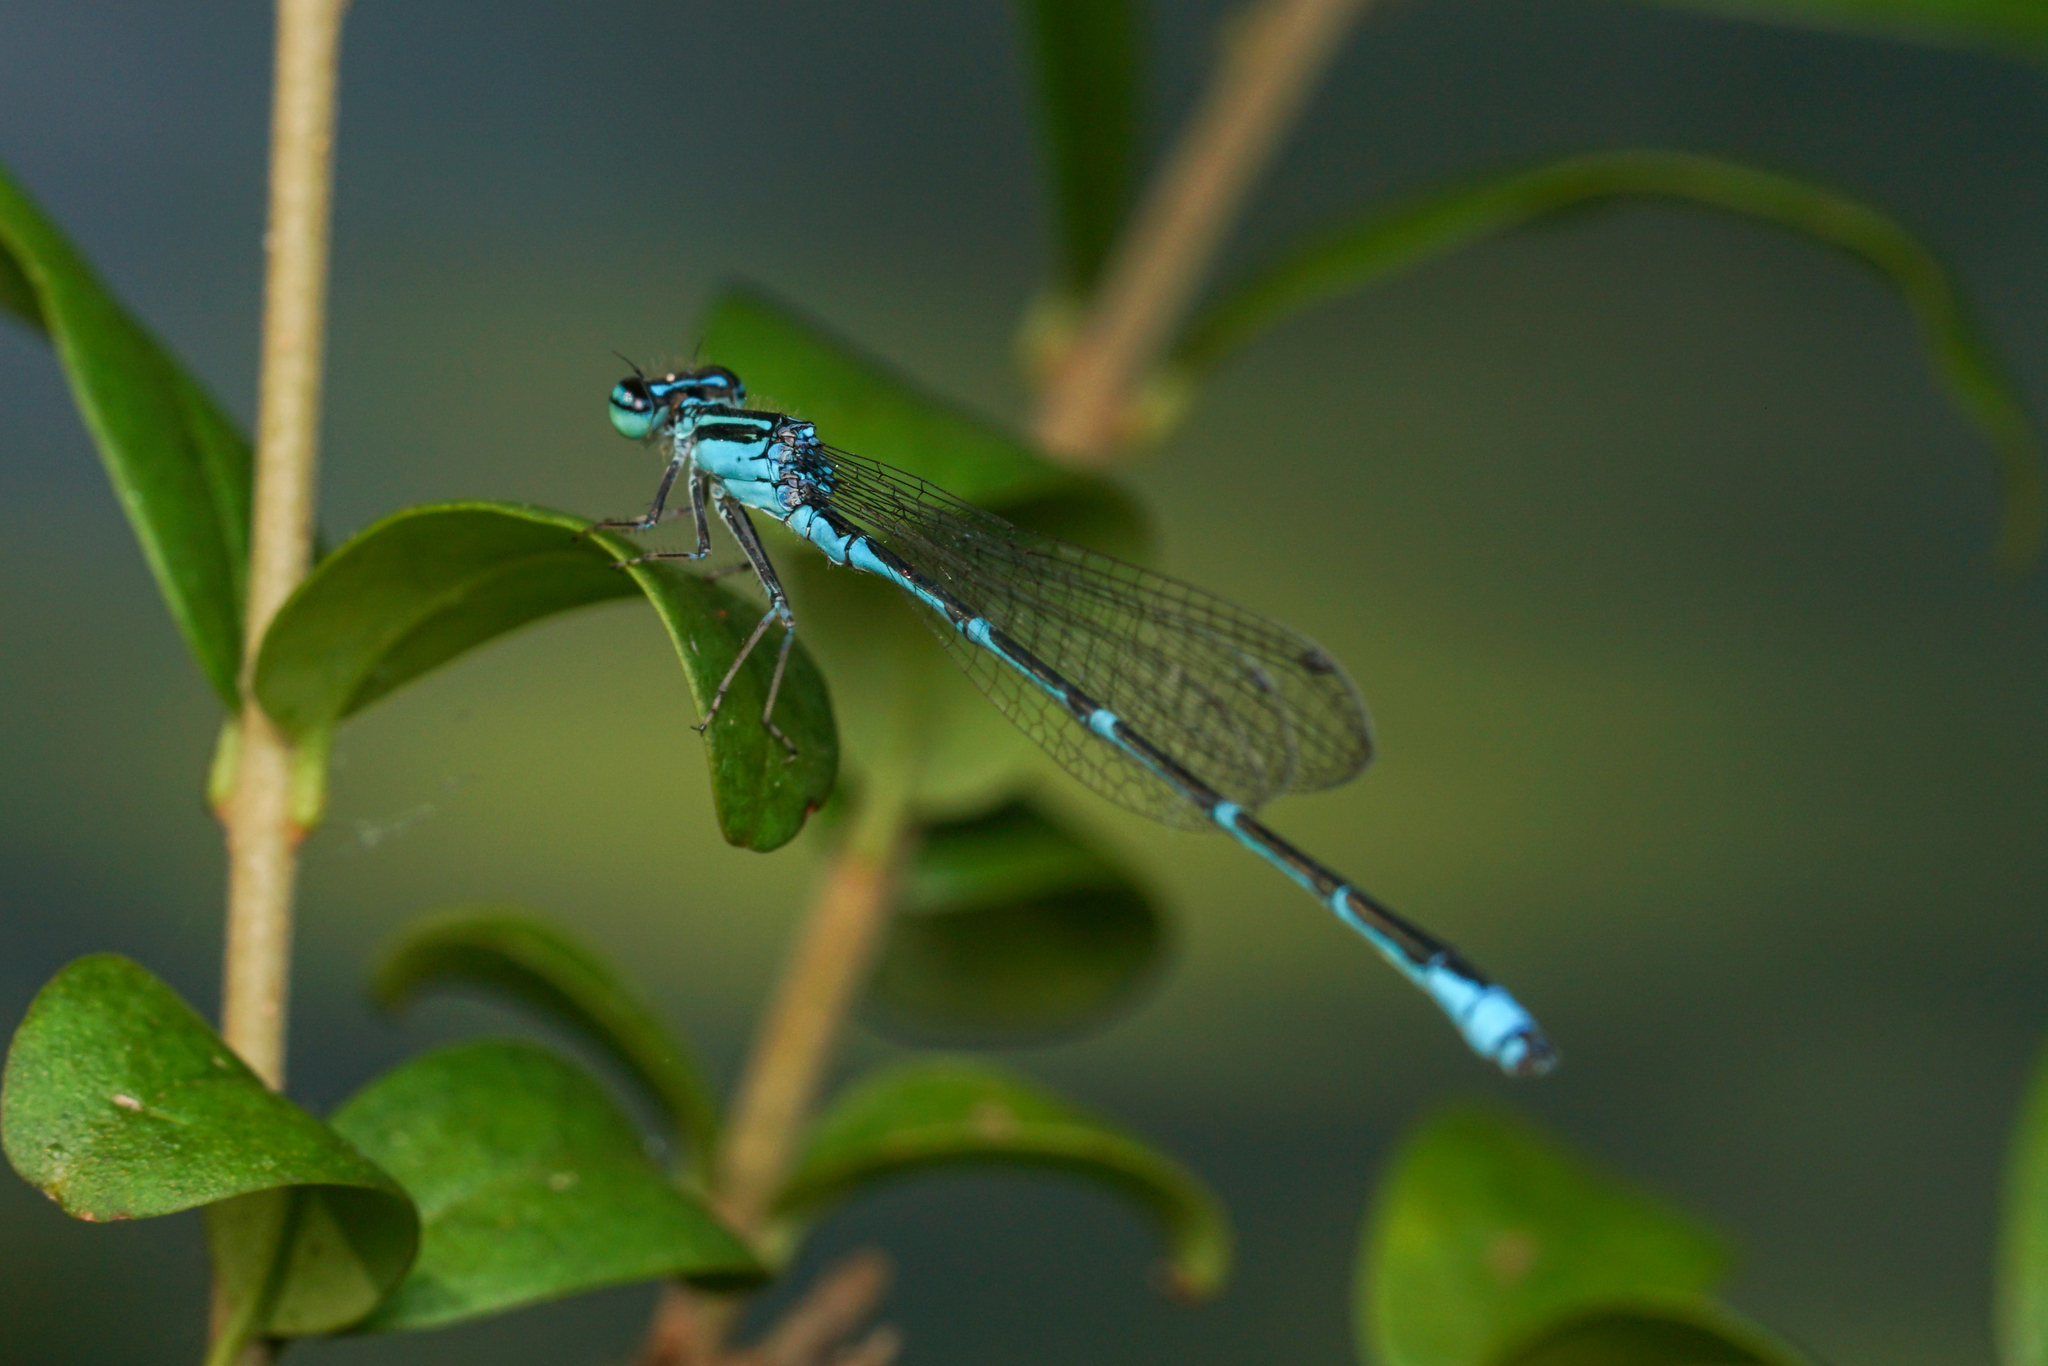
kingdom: Animalia
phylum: Arthropoda
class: Insecta
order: Odonata
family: Coenagrionidae
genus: Enallagma
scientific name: Enallagma exsulans
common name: Stream bluet
